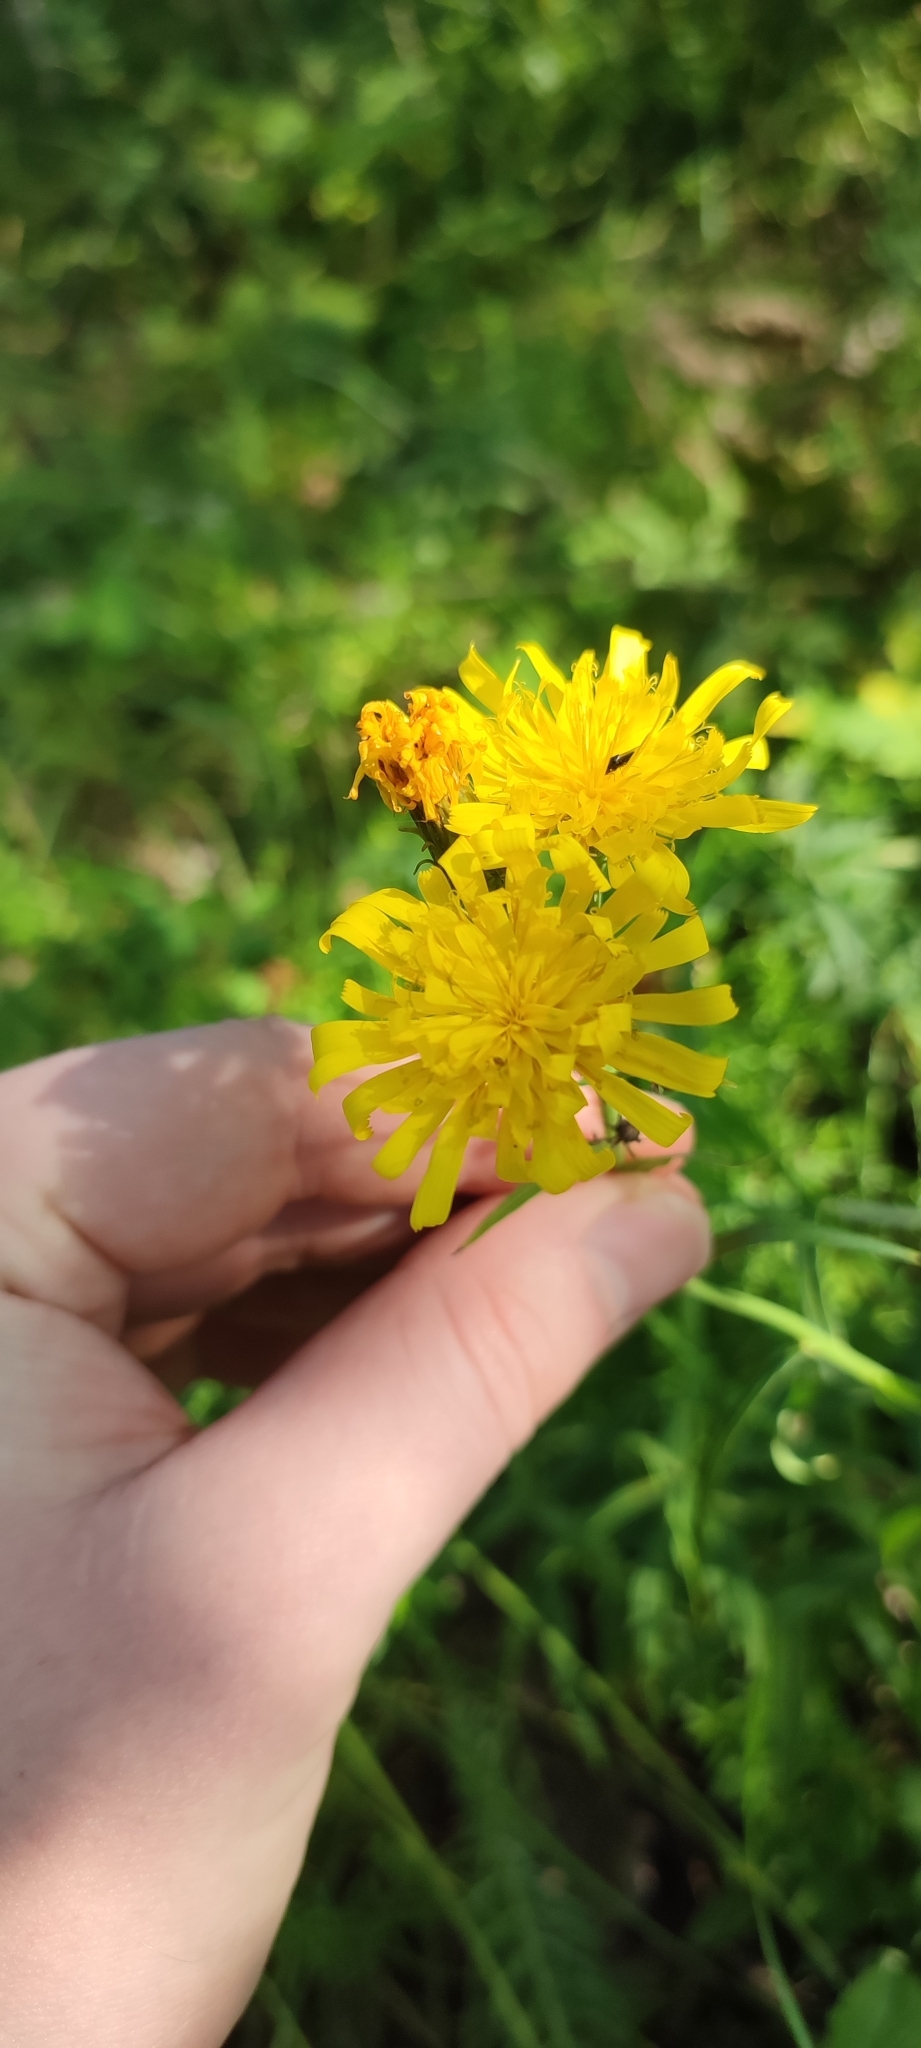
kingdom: Plantae
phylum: Tracheophyta
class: Magnoliopsida
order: Asterales
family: Asteraceae
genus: Hieracium
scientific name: Hieracium umbellatum
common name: Northern hawkweed
